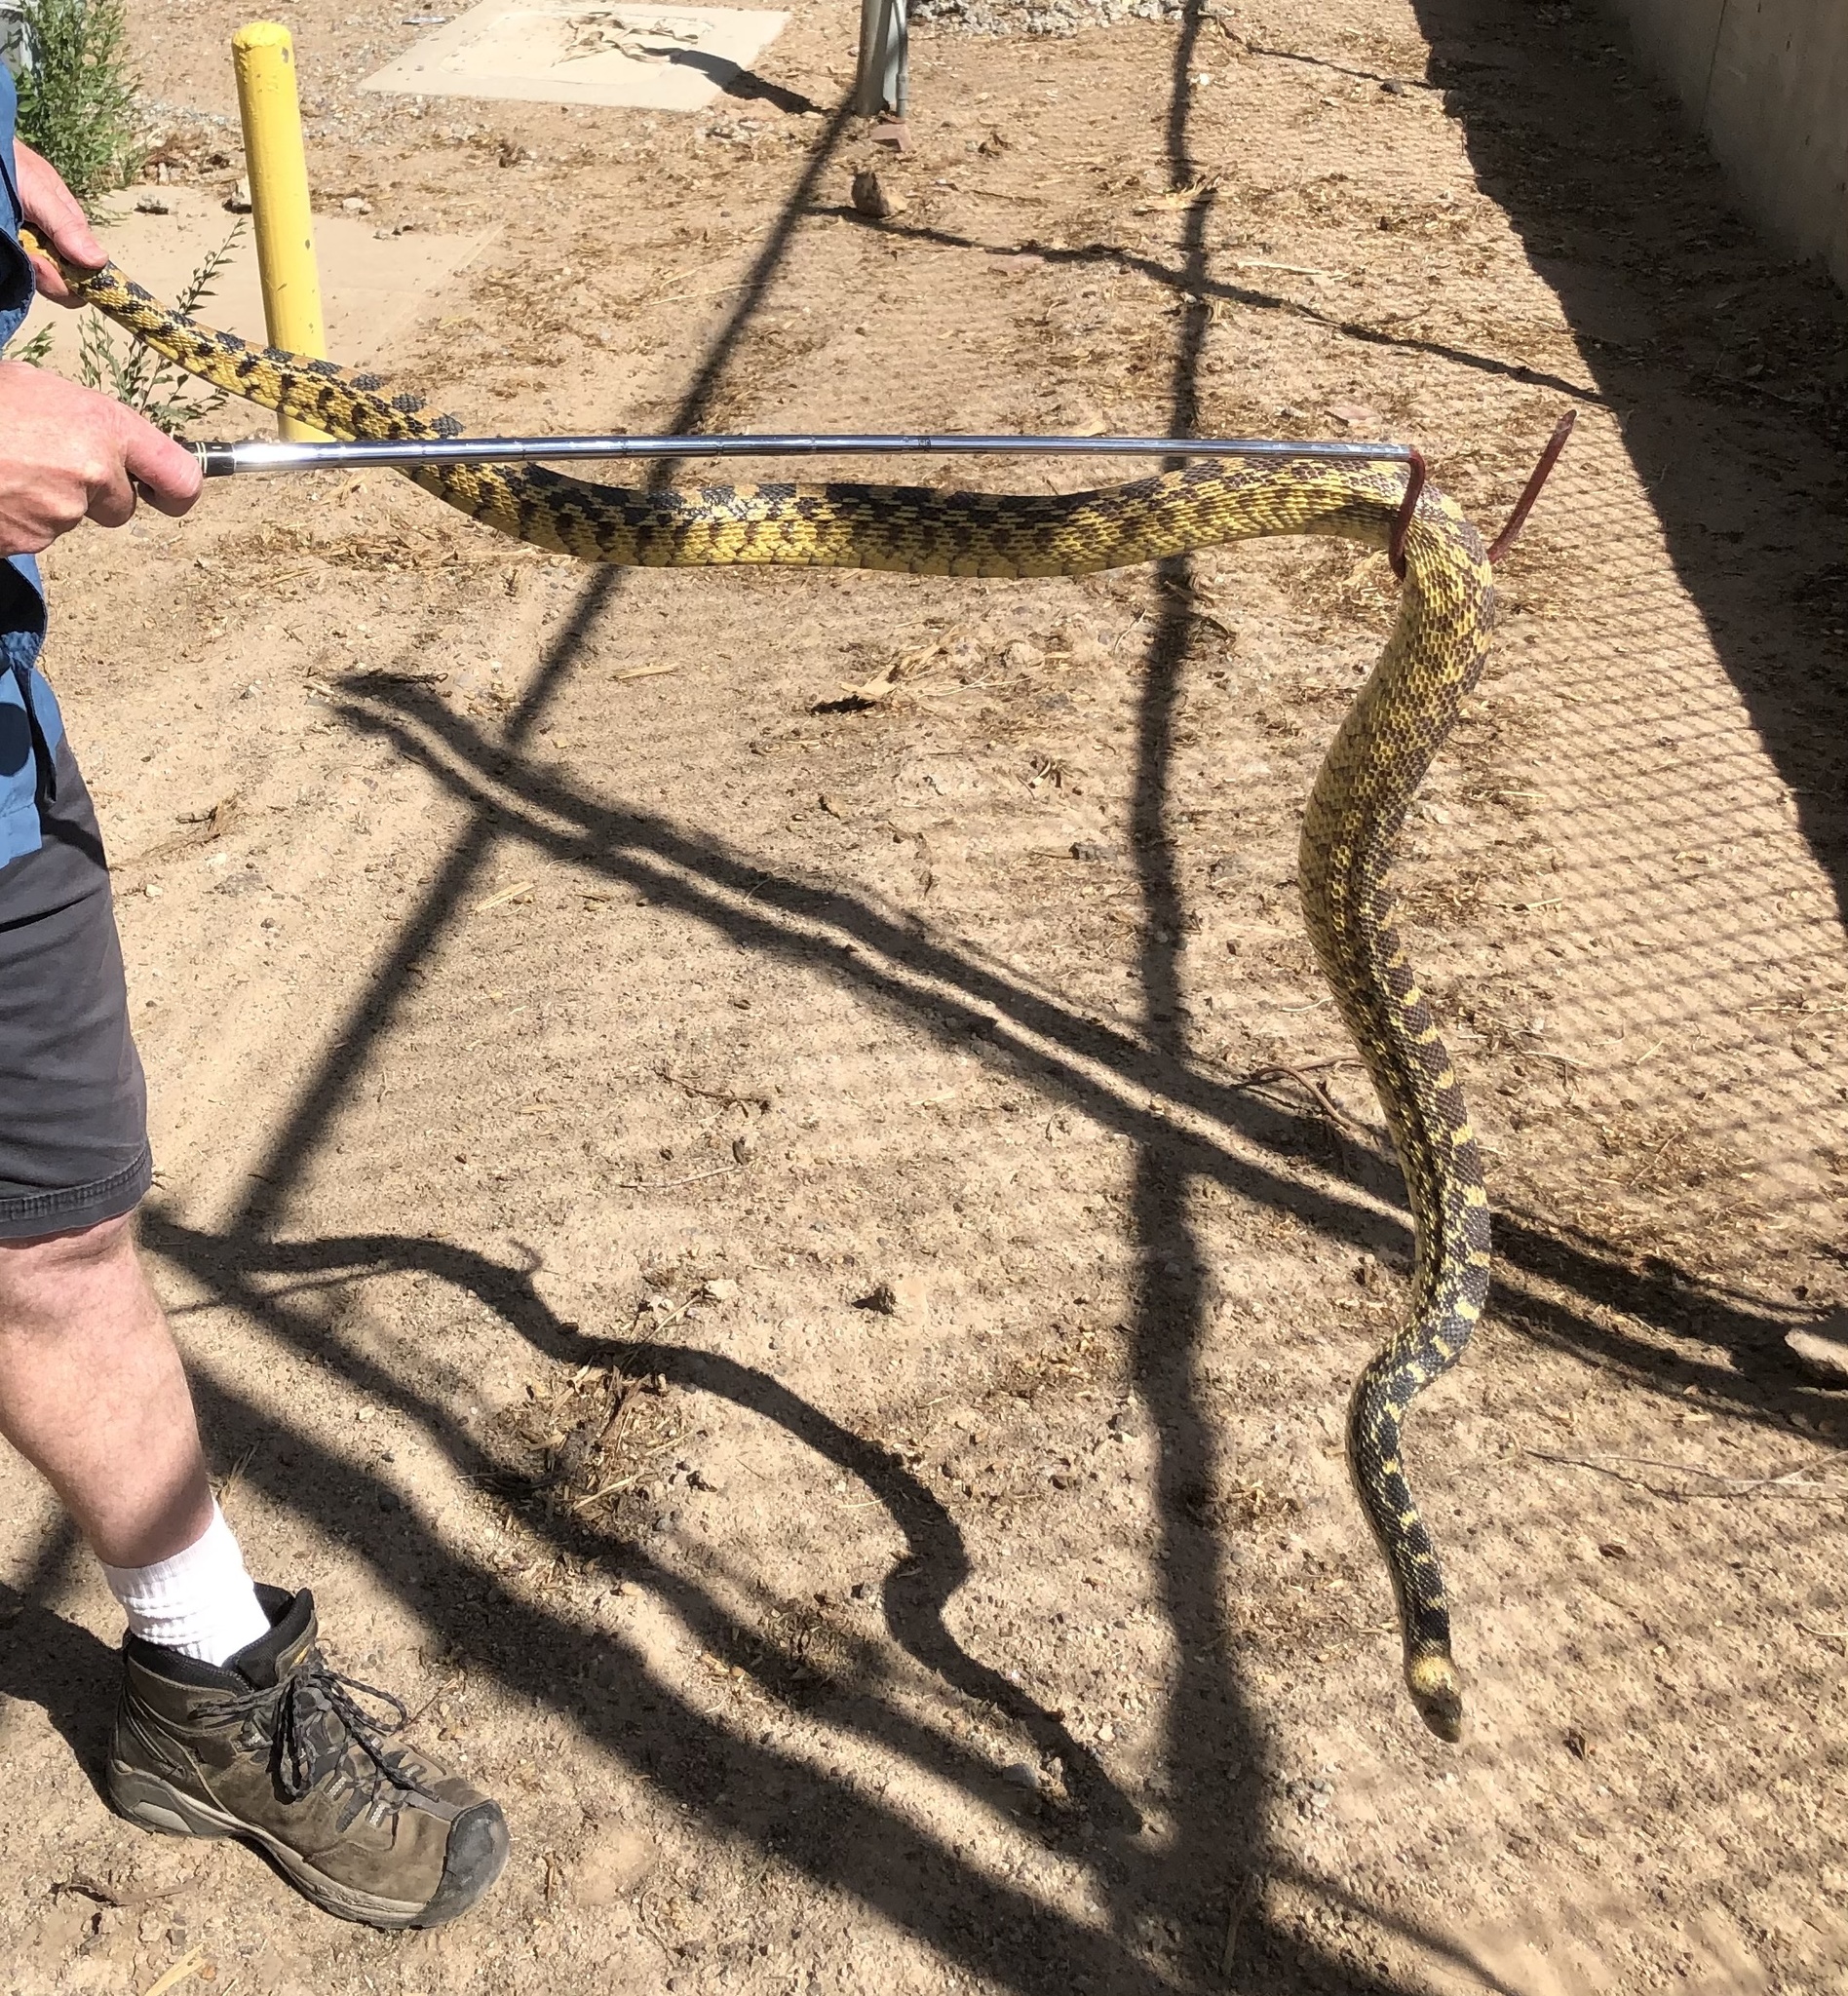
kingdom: Animalia
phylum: Chordata
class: Squamata
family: Colubridae
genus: Pituophis
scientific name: Pituophis catenifer
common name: Gopher snake
